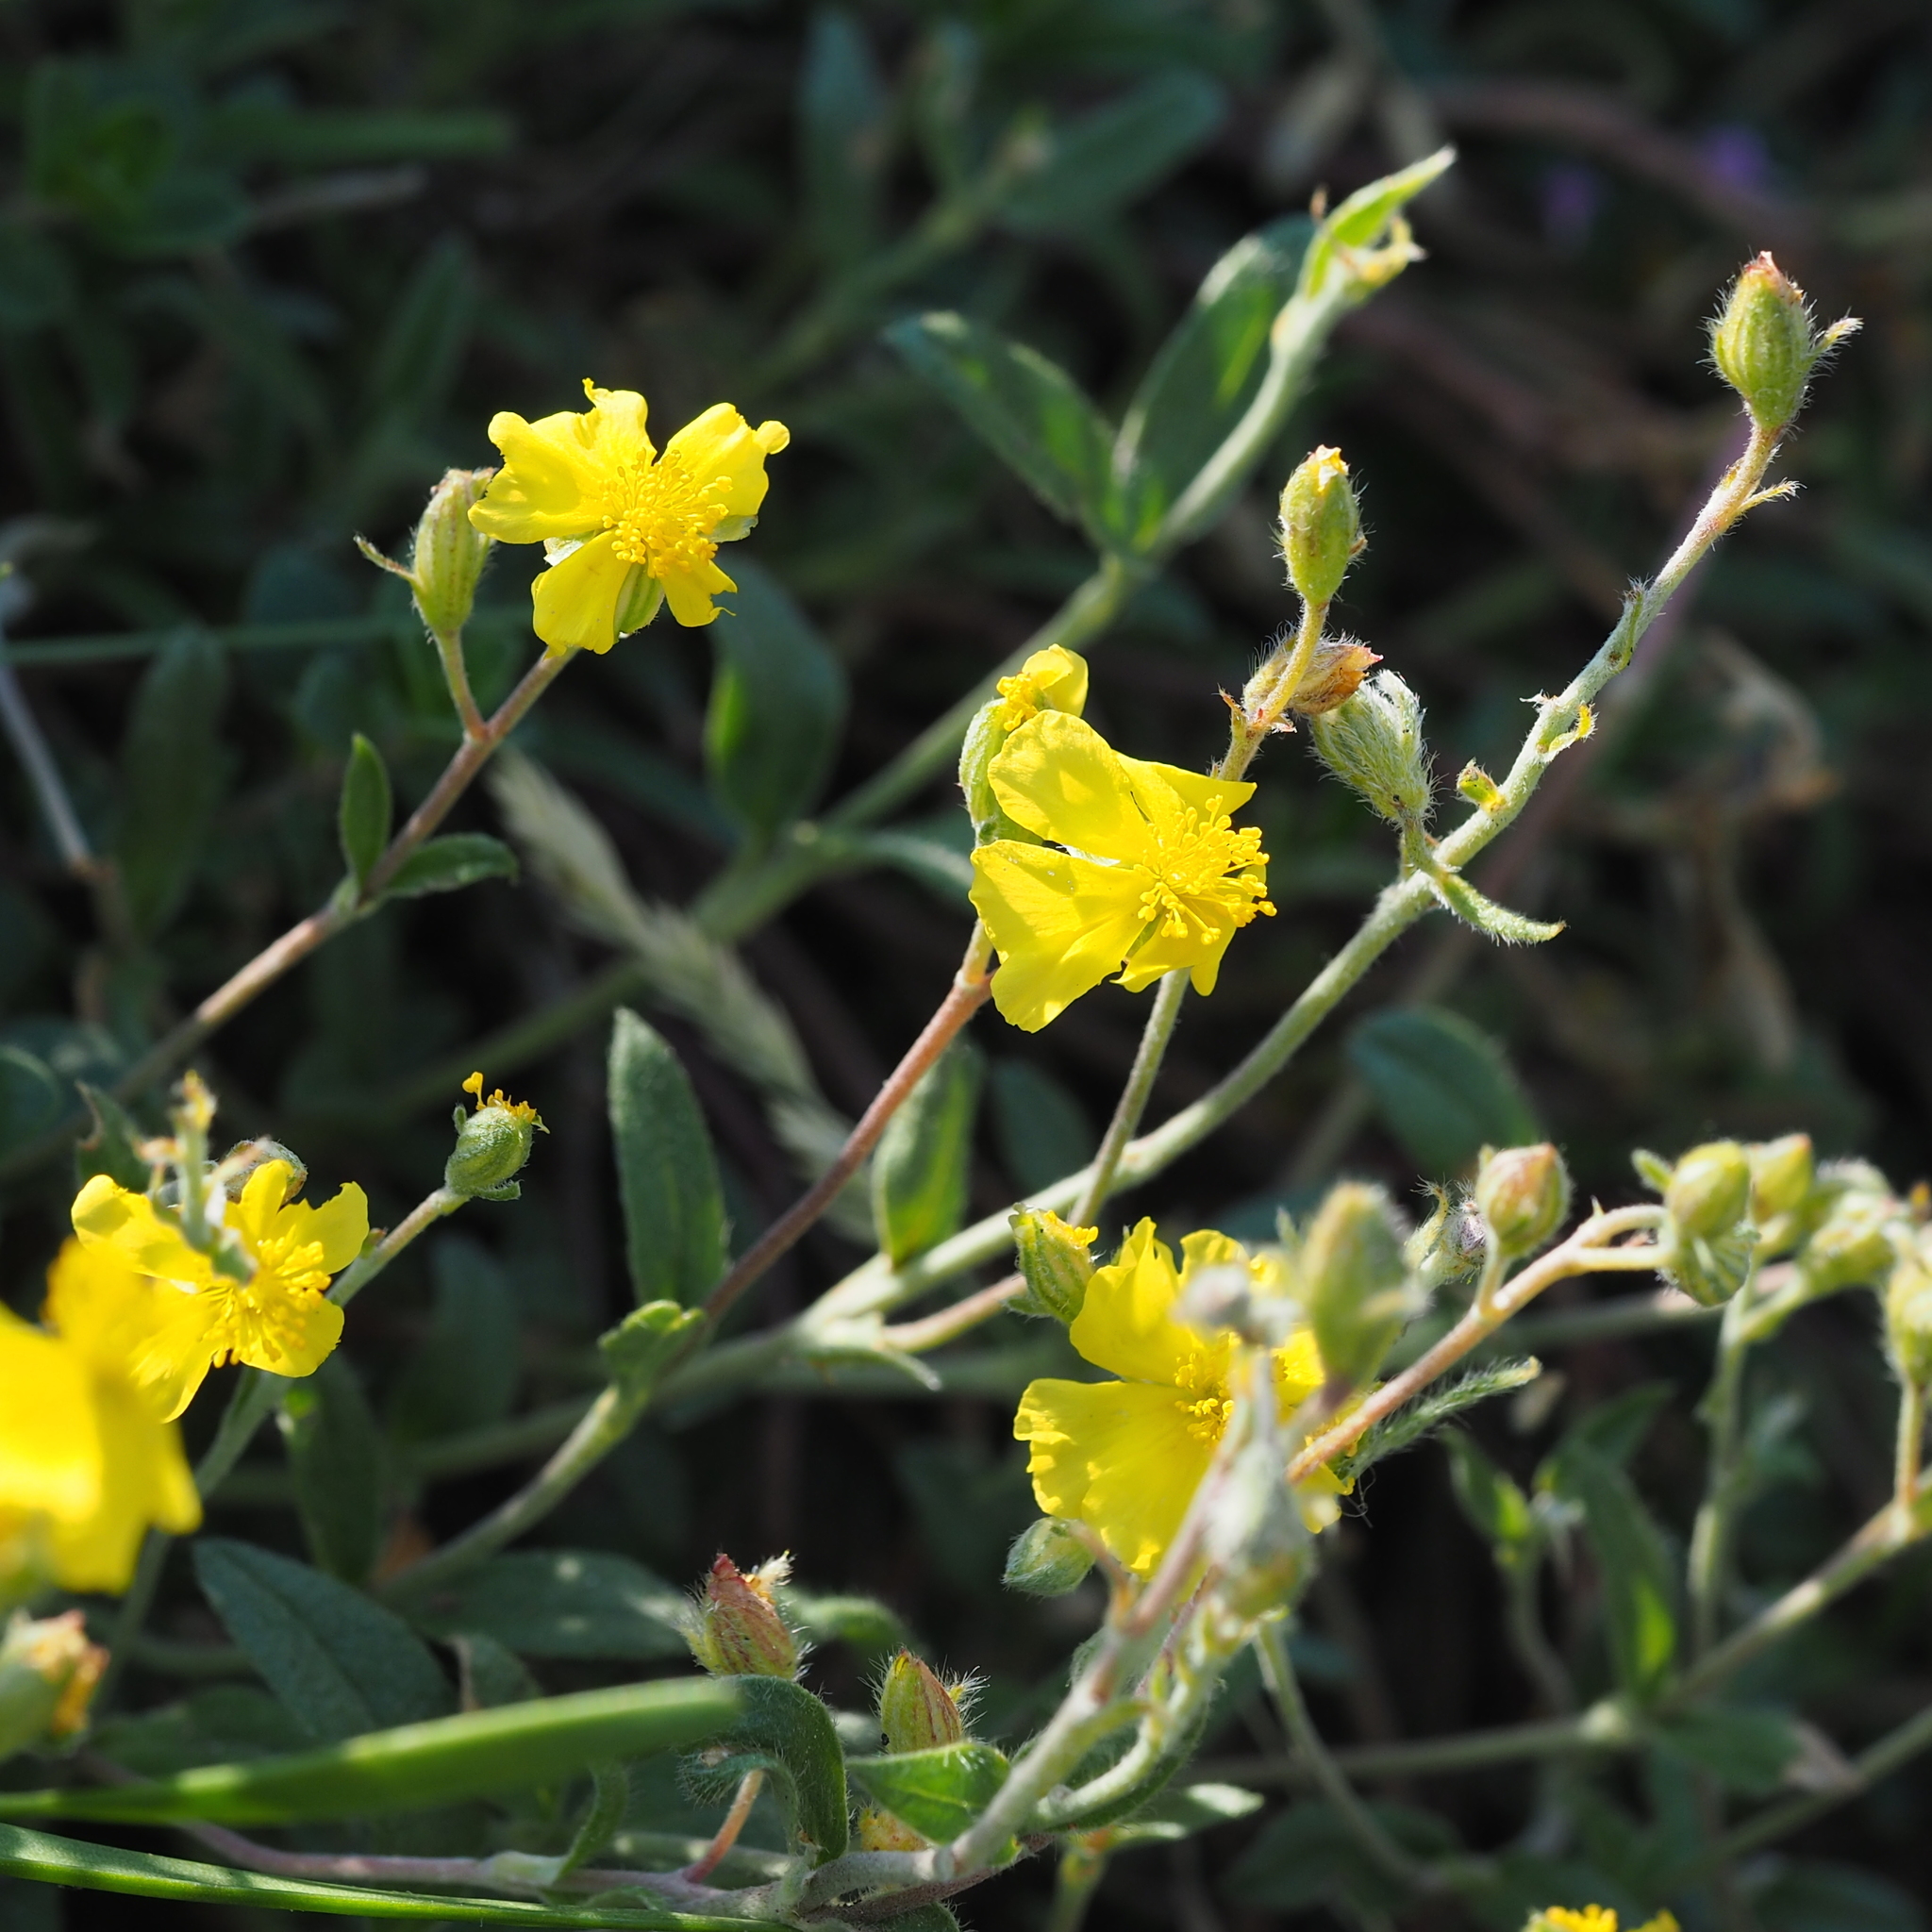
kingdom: Plantae
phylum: Tracheophyta
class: Magnoliopsida
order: Malvales
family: Cistaceae
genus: Helianthemum
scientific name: Helianthemum canum
